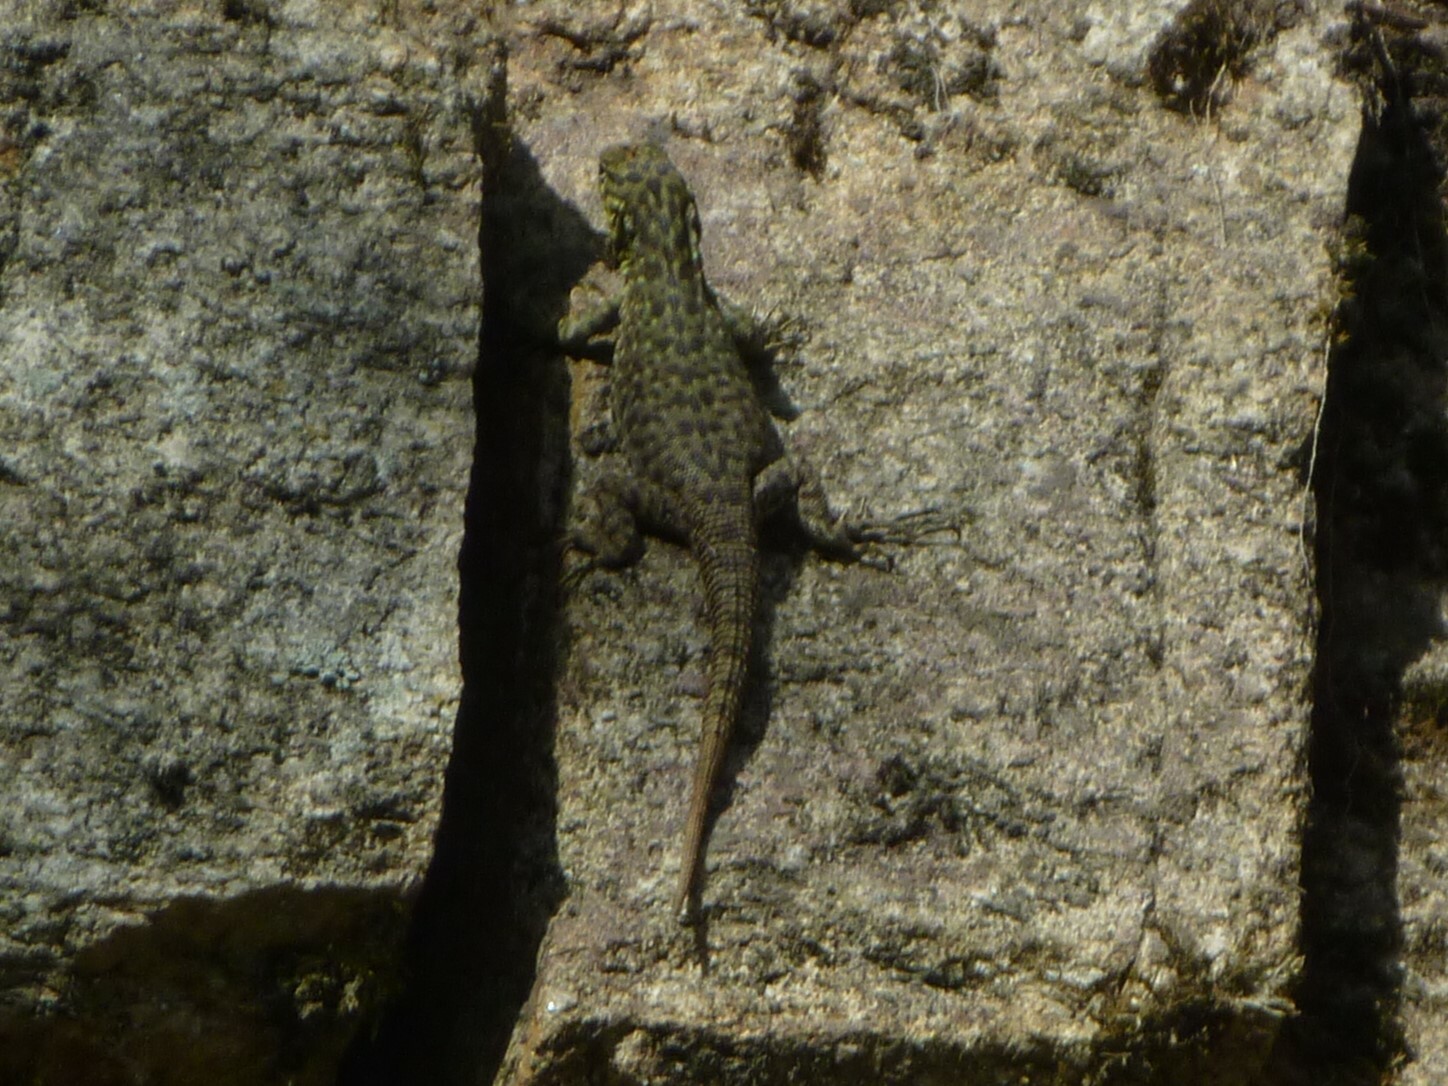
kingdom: Animalia
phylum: Chordata
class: Squamata
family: Tropiduridae
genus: Stenocercus
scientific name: Stenocercus crassicaudatus
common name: Spiny whorltail iguana
